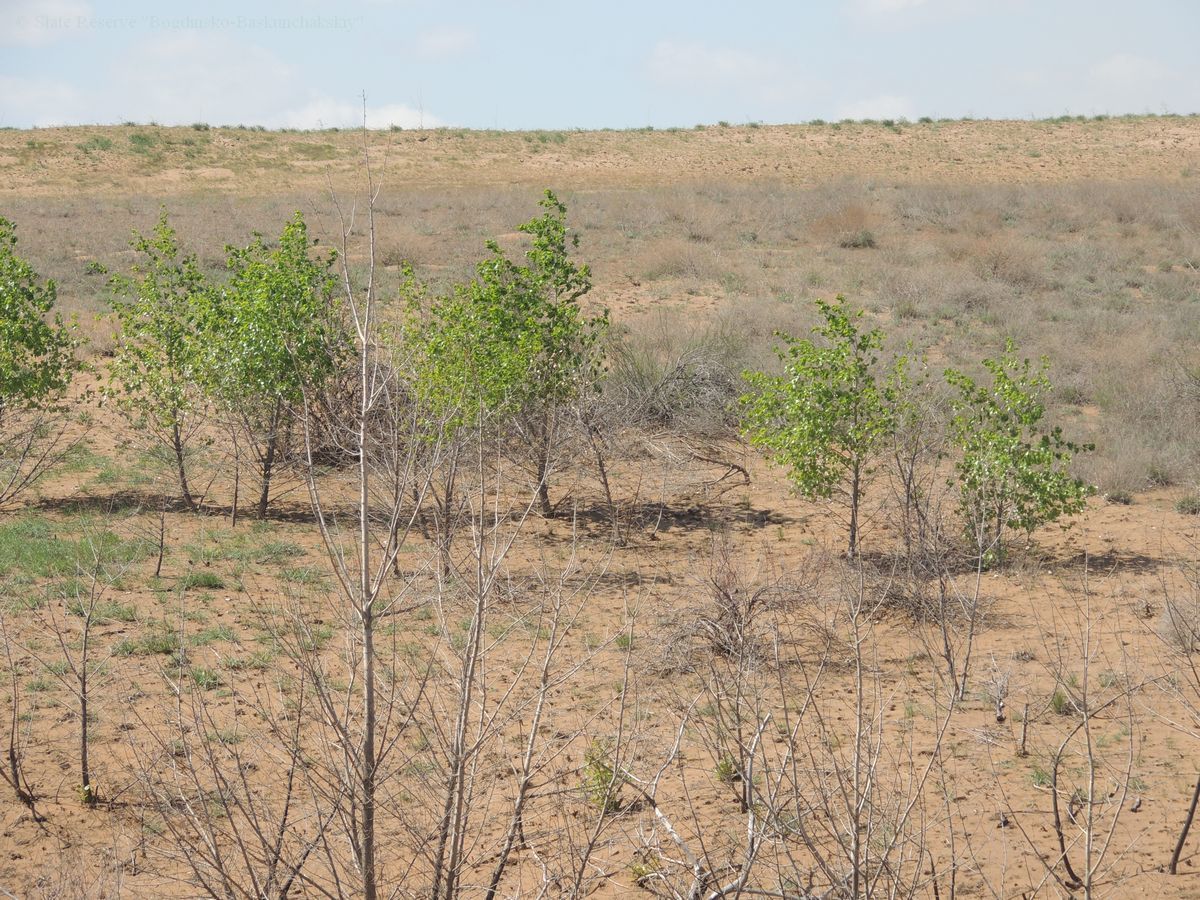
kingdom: Plantae
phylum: Tracheophyta
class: Magnoliopsida
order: Malpighiales
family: Salicaceae
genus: Populus
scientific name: Populus nigra
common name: Black poplar
